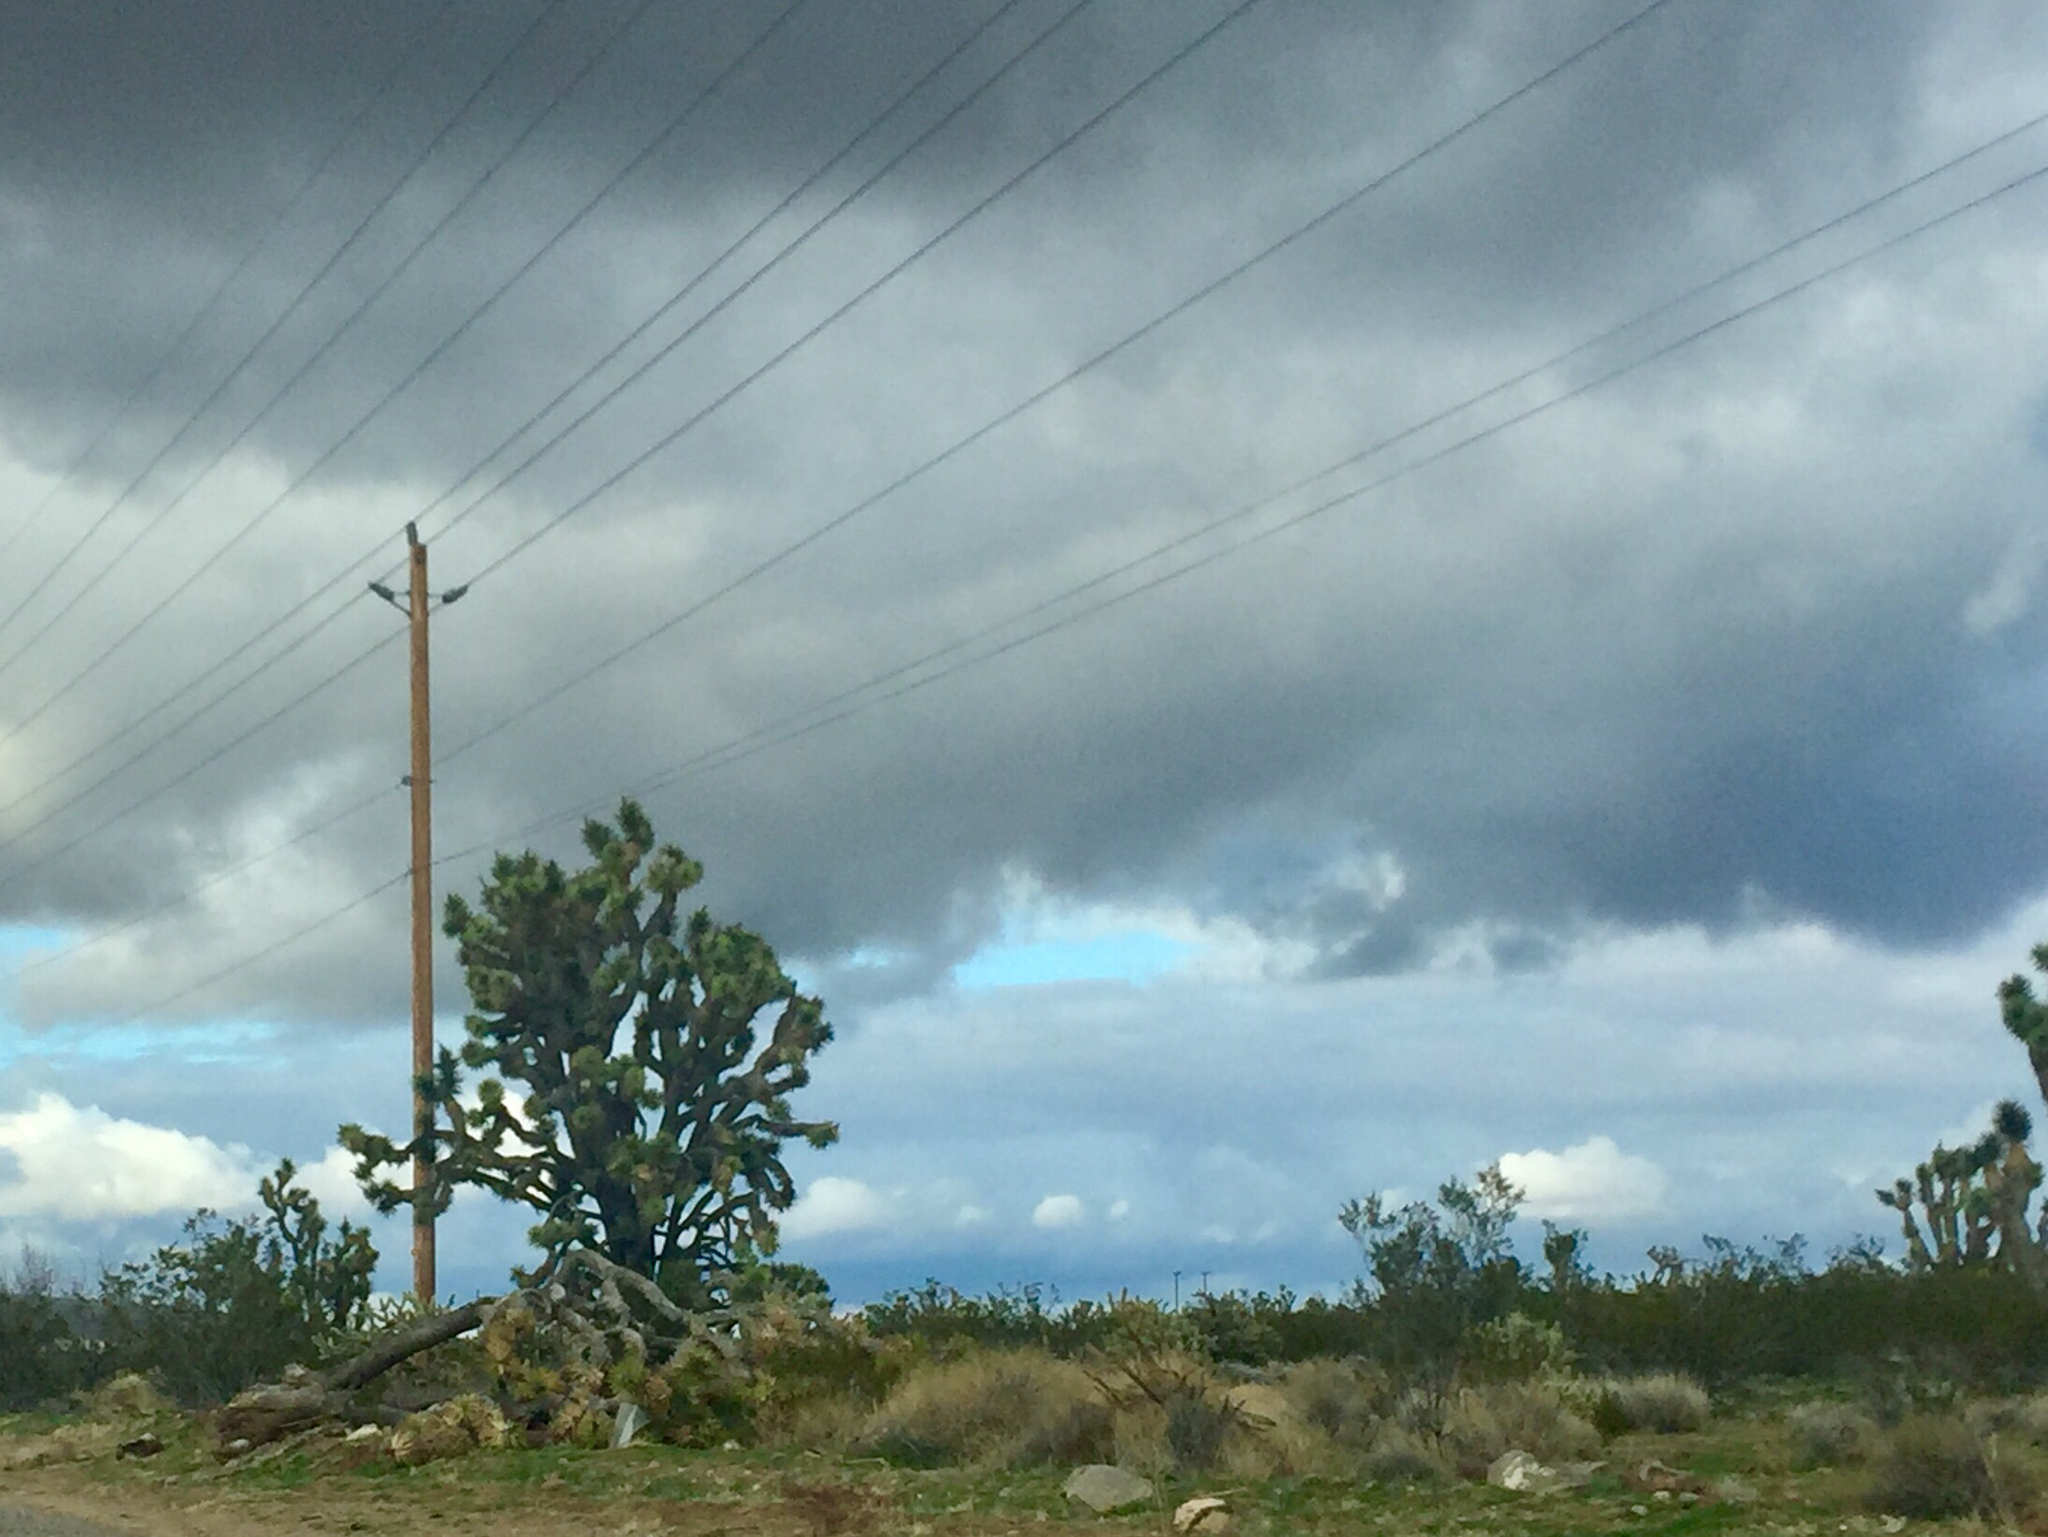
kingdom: Plantae
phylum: Tracheophyta
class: Liliopsida
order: Asparagales
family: Asparagaceae
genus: Yucca
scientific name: Yucca brevifolia
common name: Joshua tree
